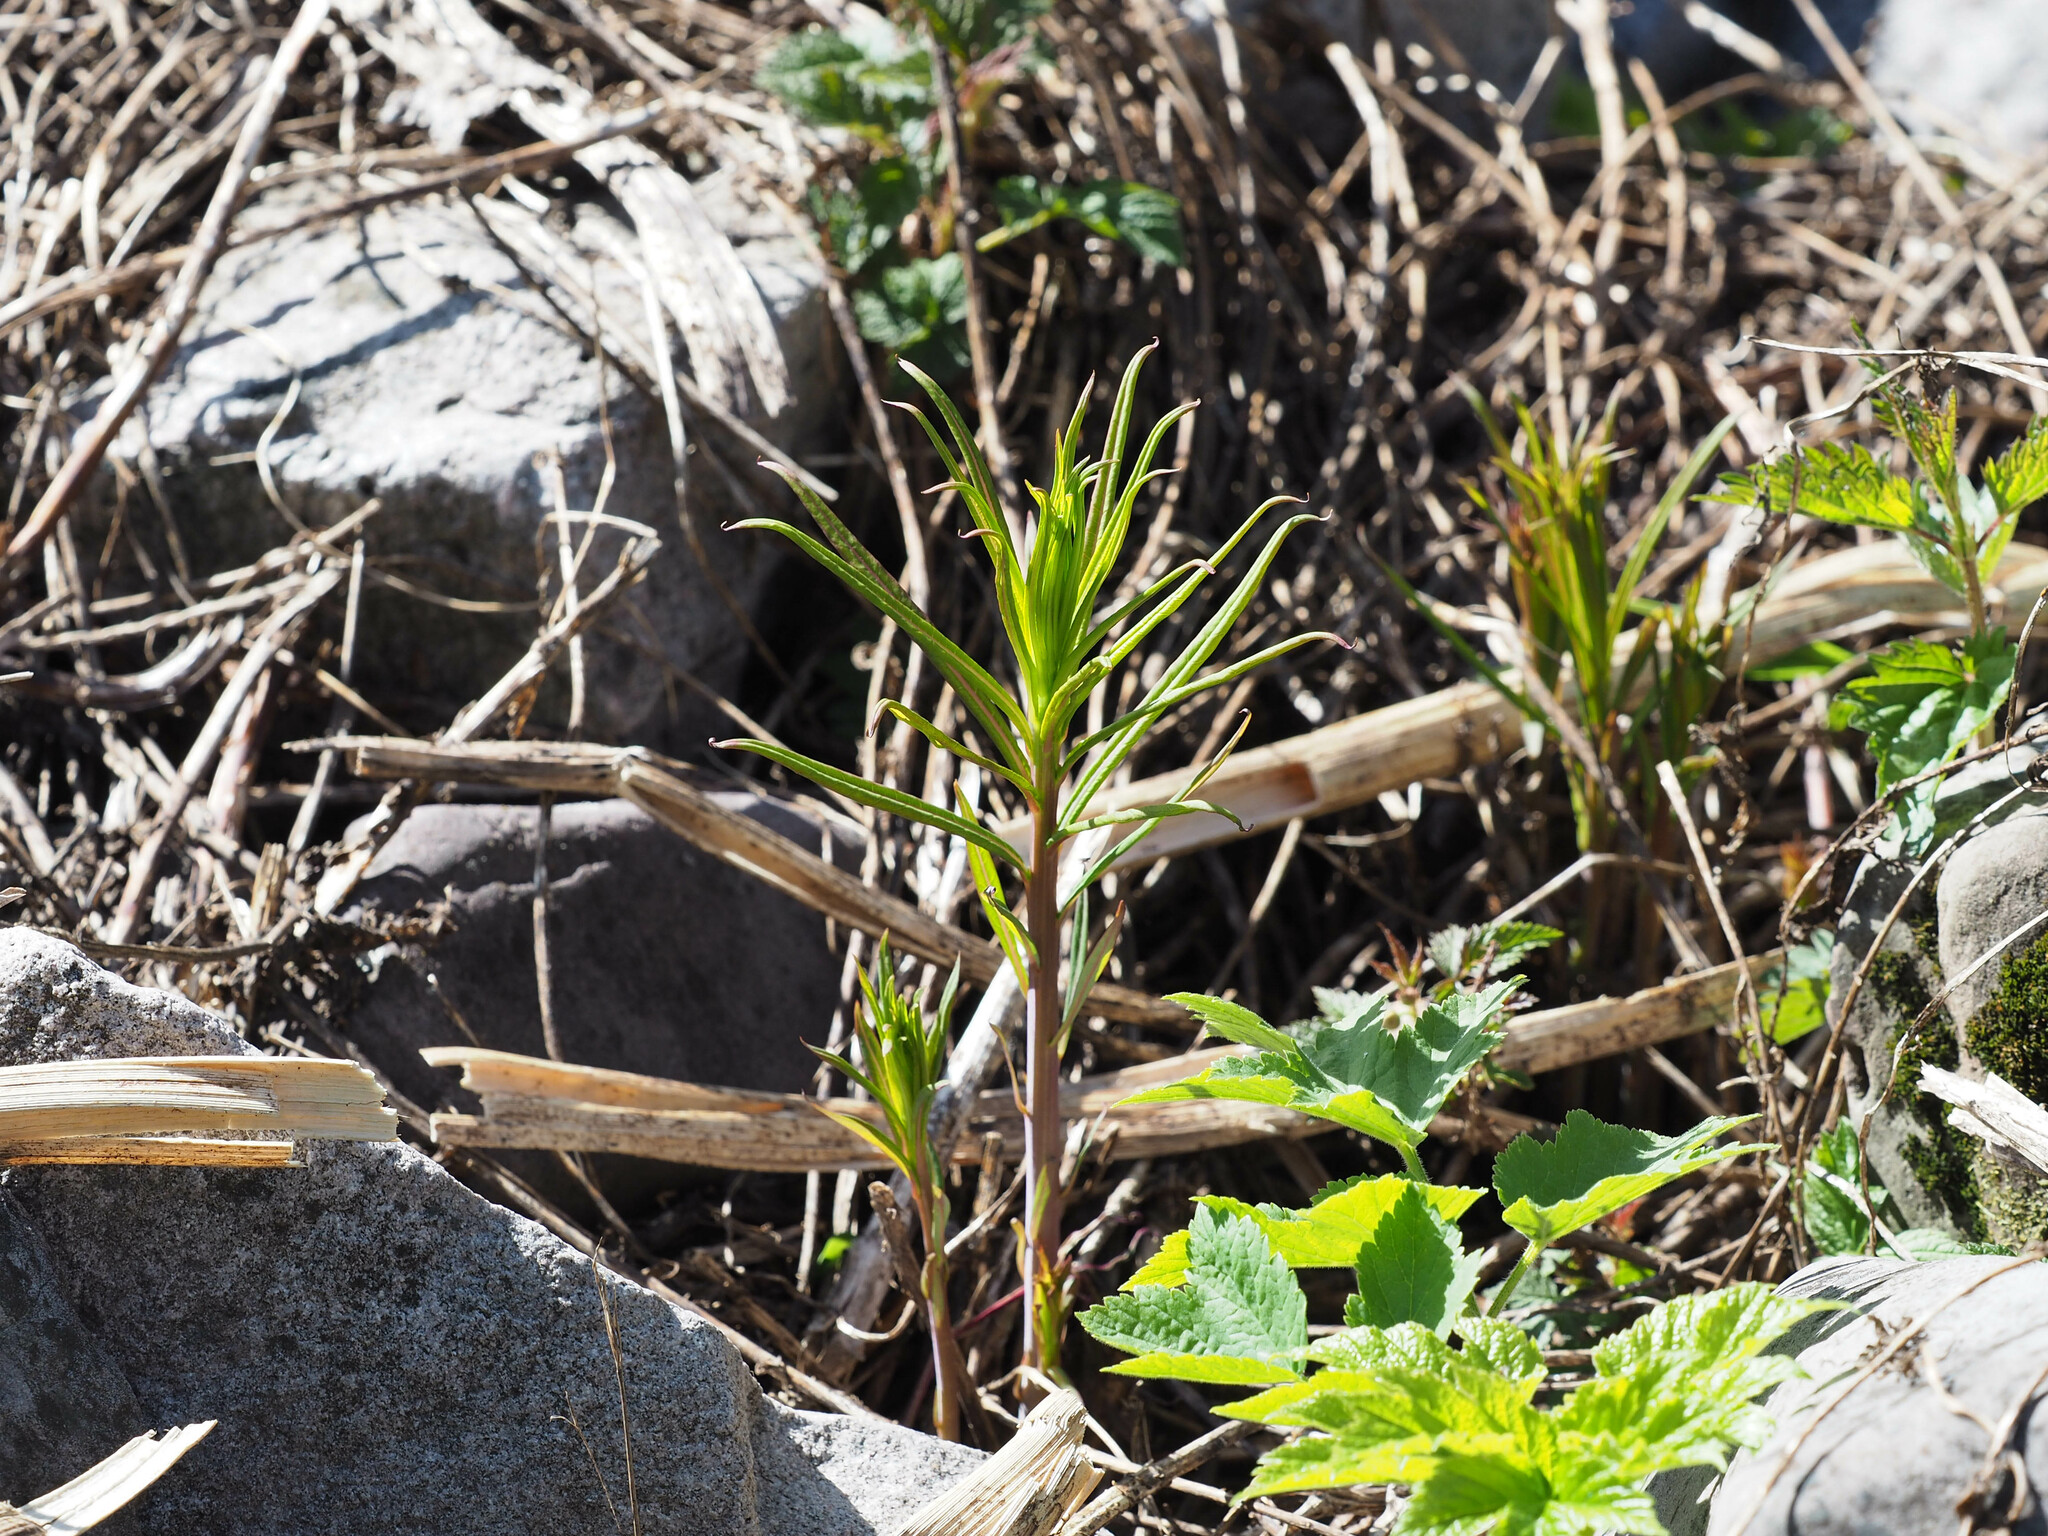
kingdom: Plantae
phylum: Tracheophyta
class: Magnoliopsida
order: Myrtales
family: Onagraceae
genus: Chamaenerion
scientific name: Chamaenerion angustifolium
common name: Fireweed
